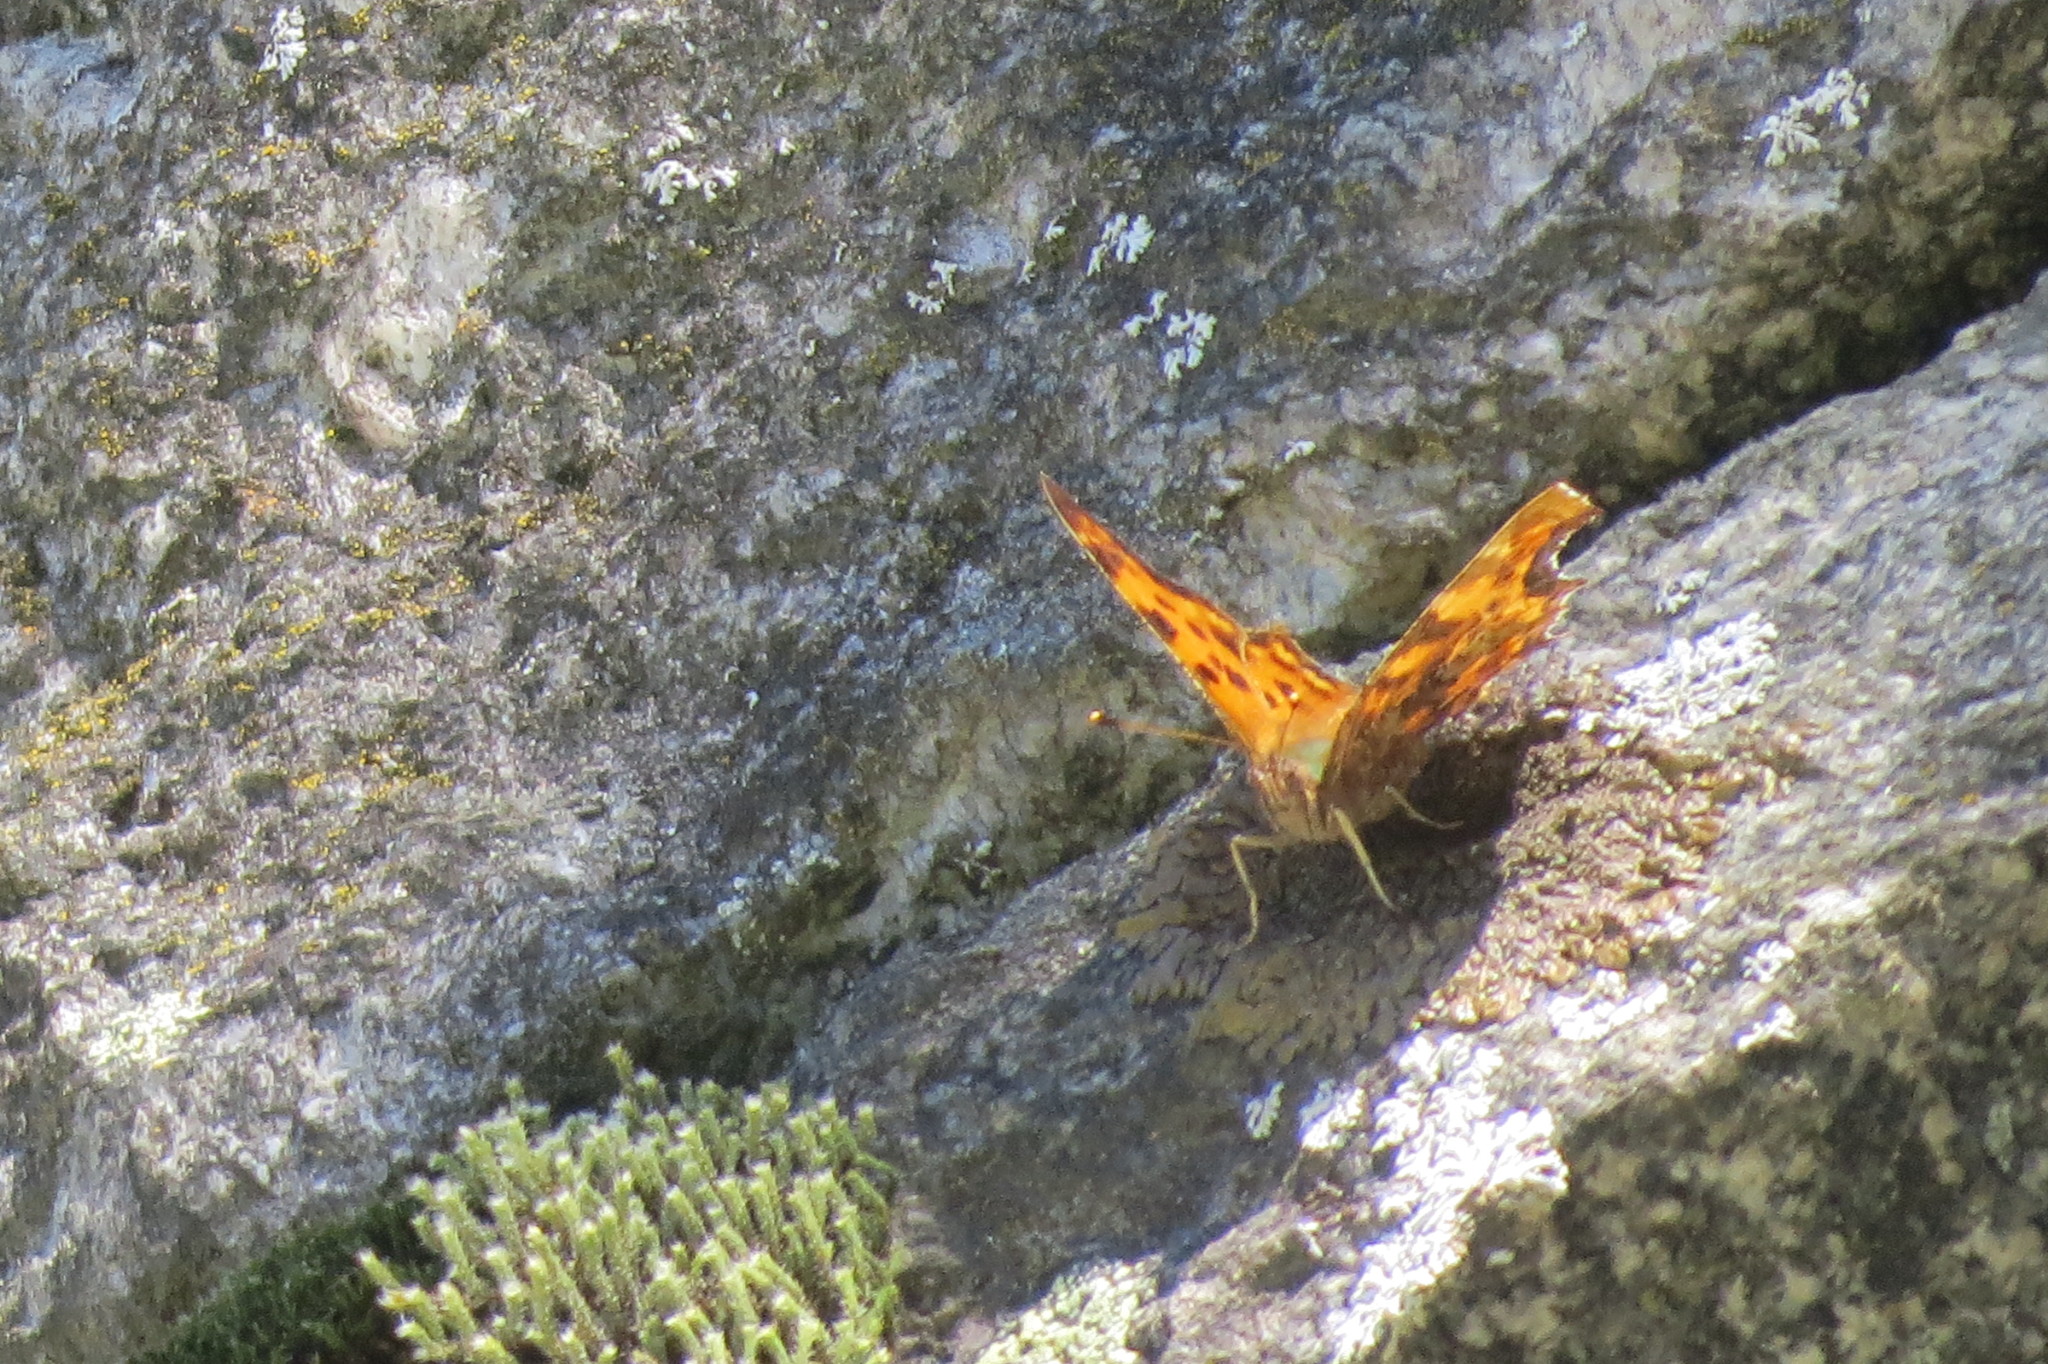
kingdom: Animalia
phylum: Arthropoda
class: Insecta
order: Lepidoptera
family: Nymphalidae
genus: Polygonia
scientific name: Polygonia c-album
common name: Comma
